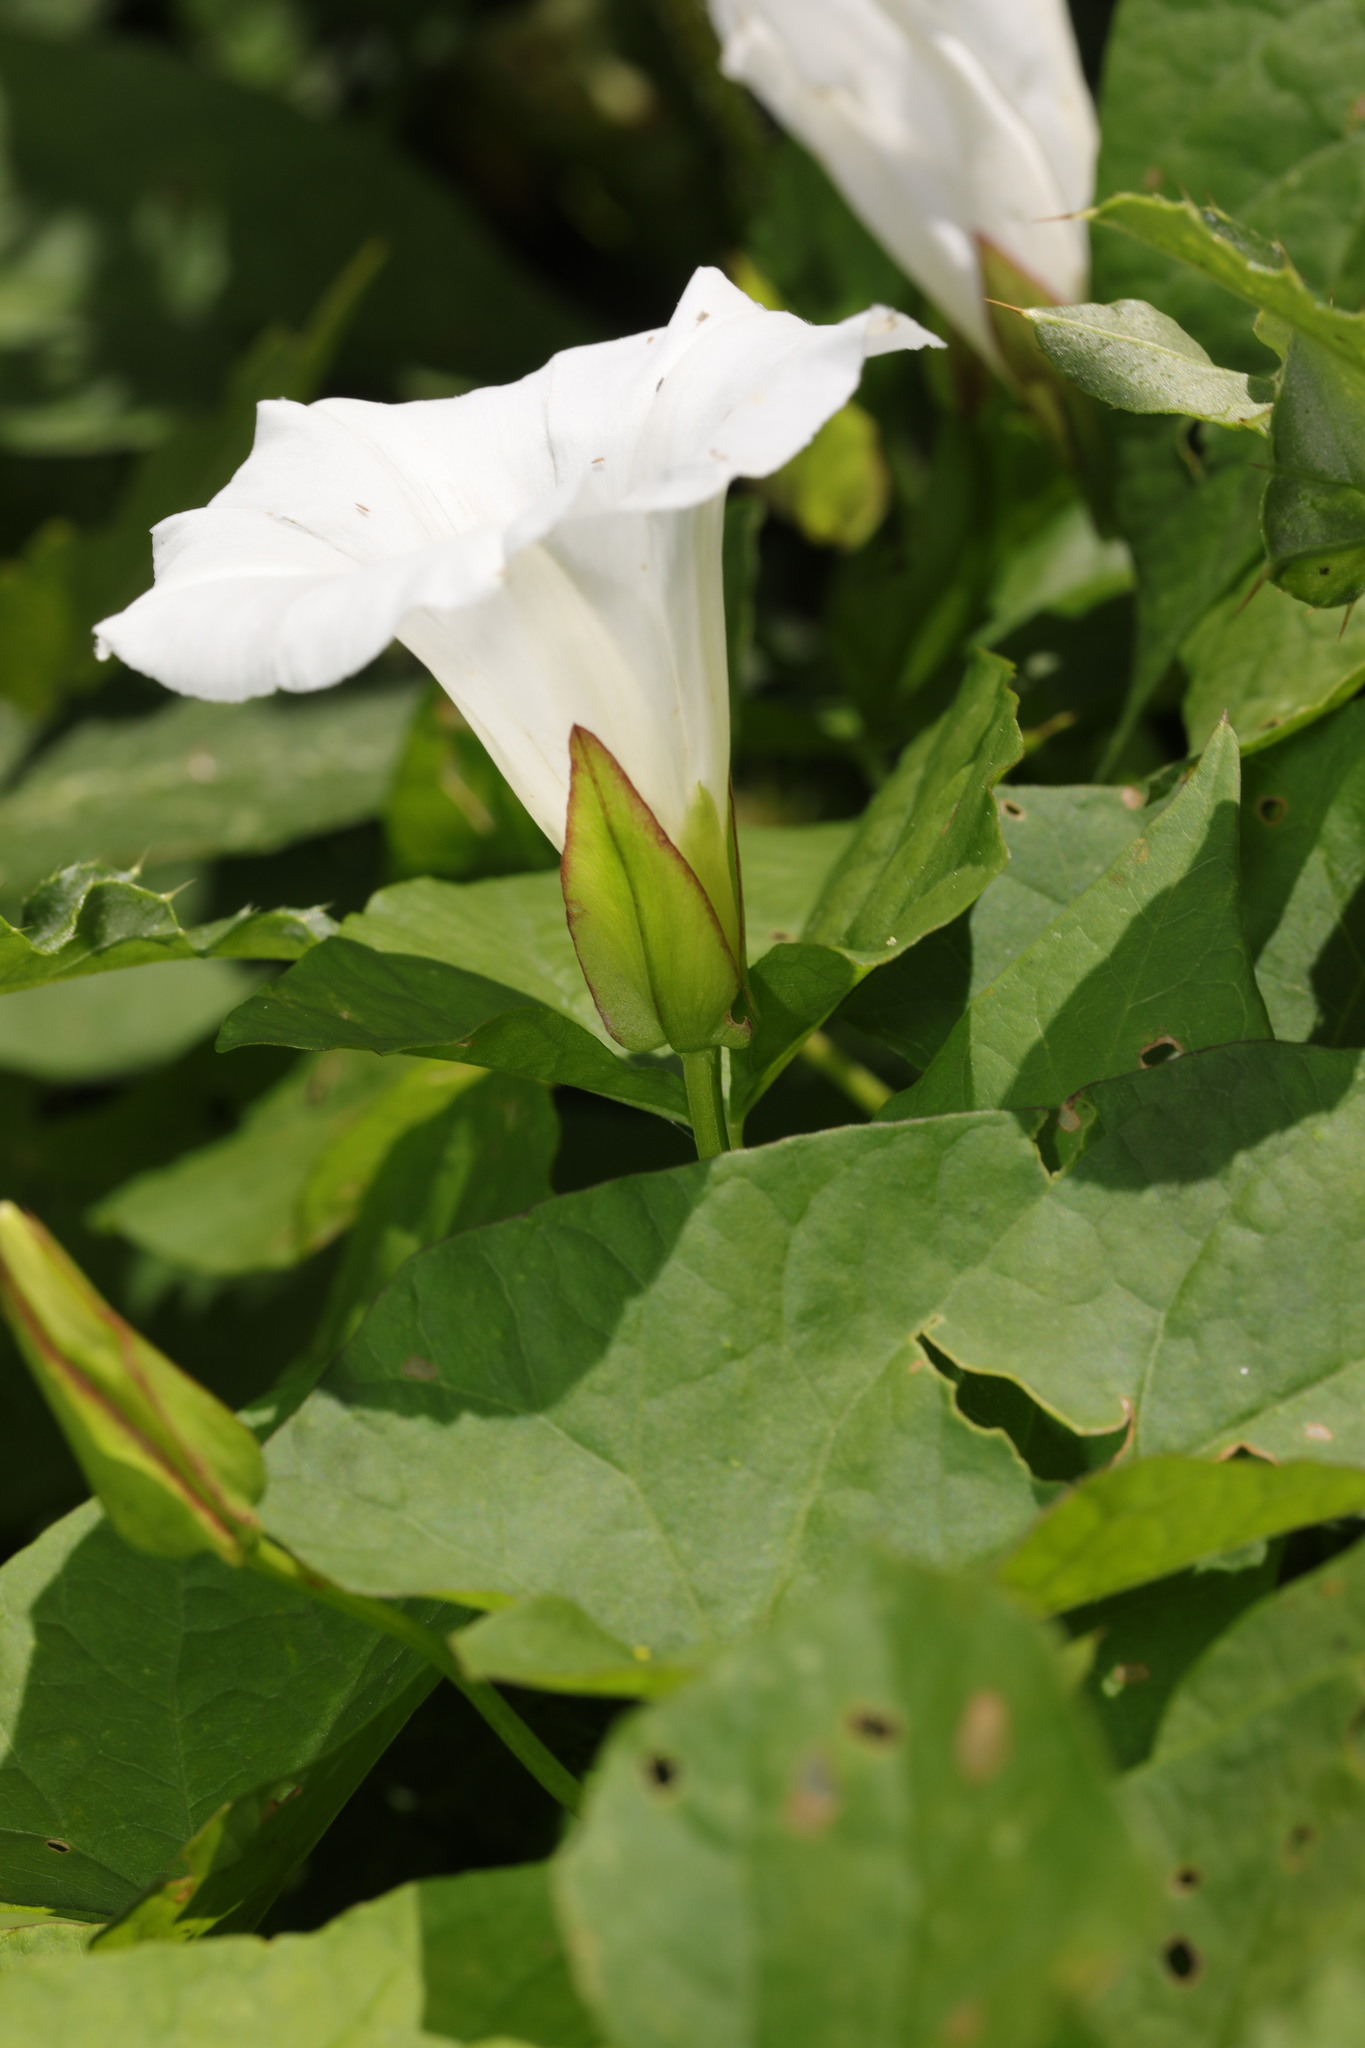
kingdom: Plantae
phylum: Tracheophyta
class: Magnoliopsida
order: Solanales
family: Convolvulaceae
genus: Calystegia
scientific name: Calystegia sepium
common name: Hedge bindweed
